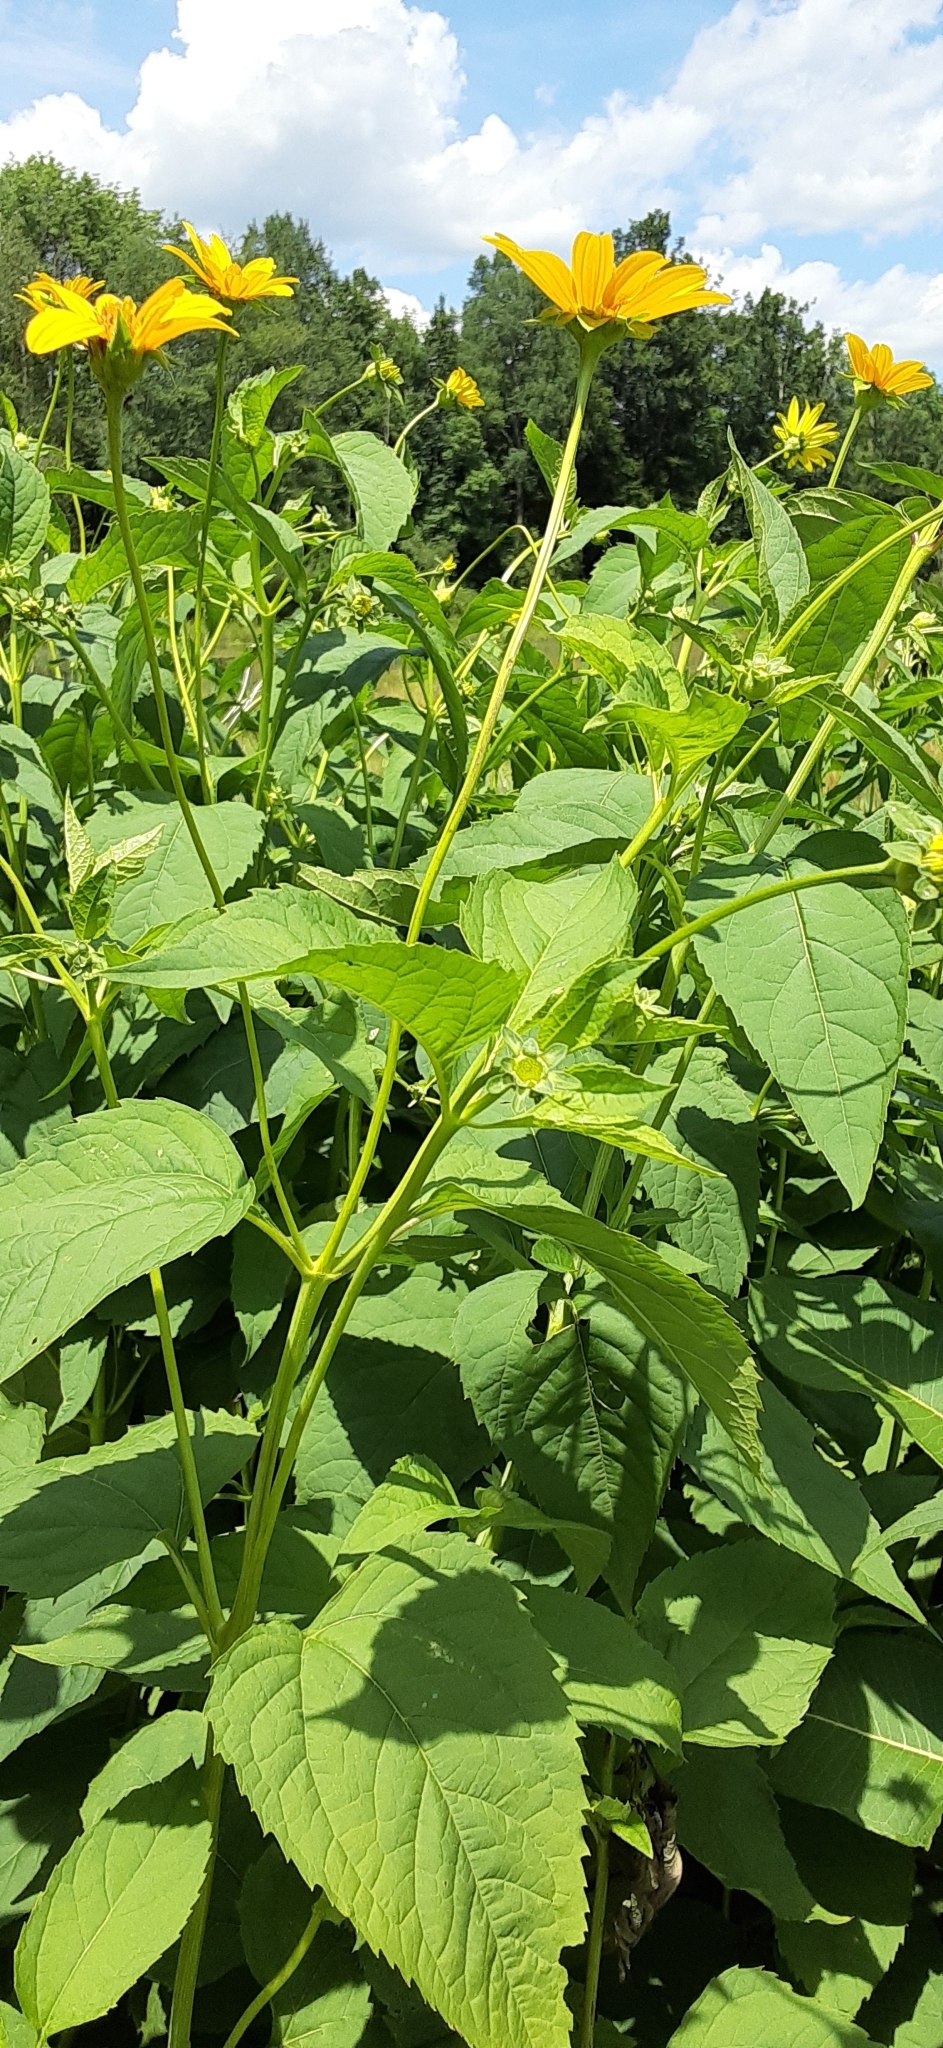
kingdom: Plantae
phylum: Tracheophyta
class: Magnoliopsida
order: Asterales
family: Asteraceae
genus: Heliopsis
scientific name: Heliopsis helianthoides
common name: False sunflower
